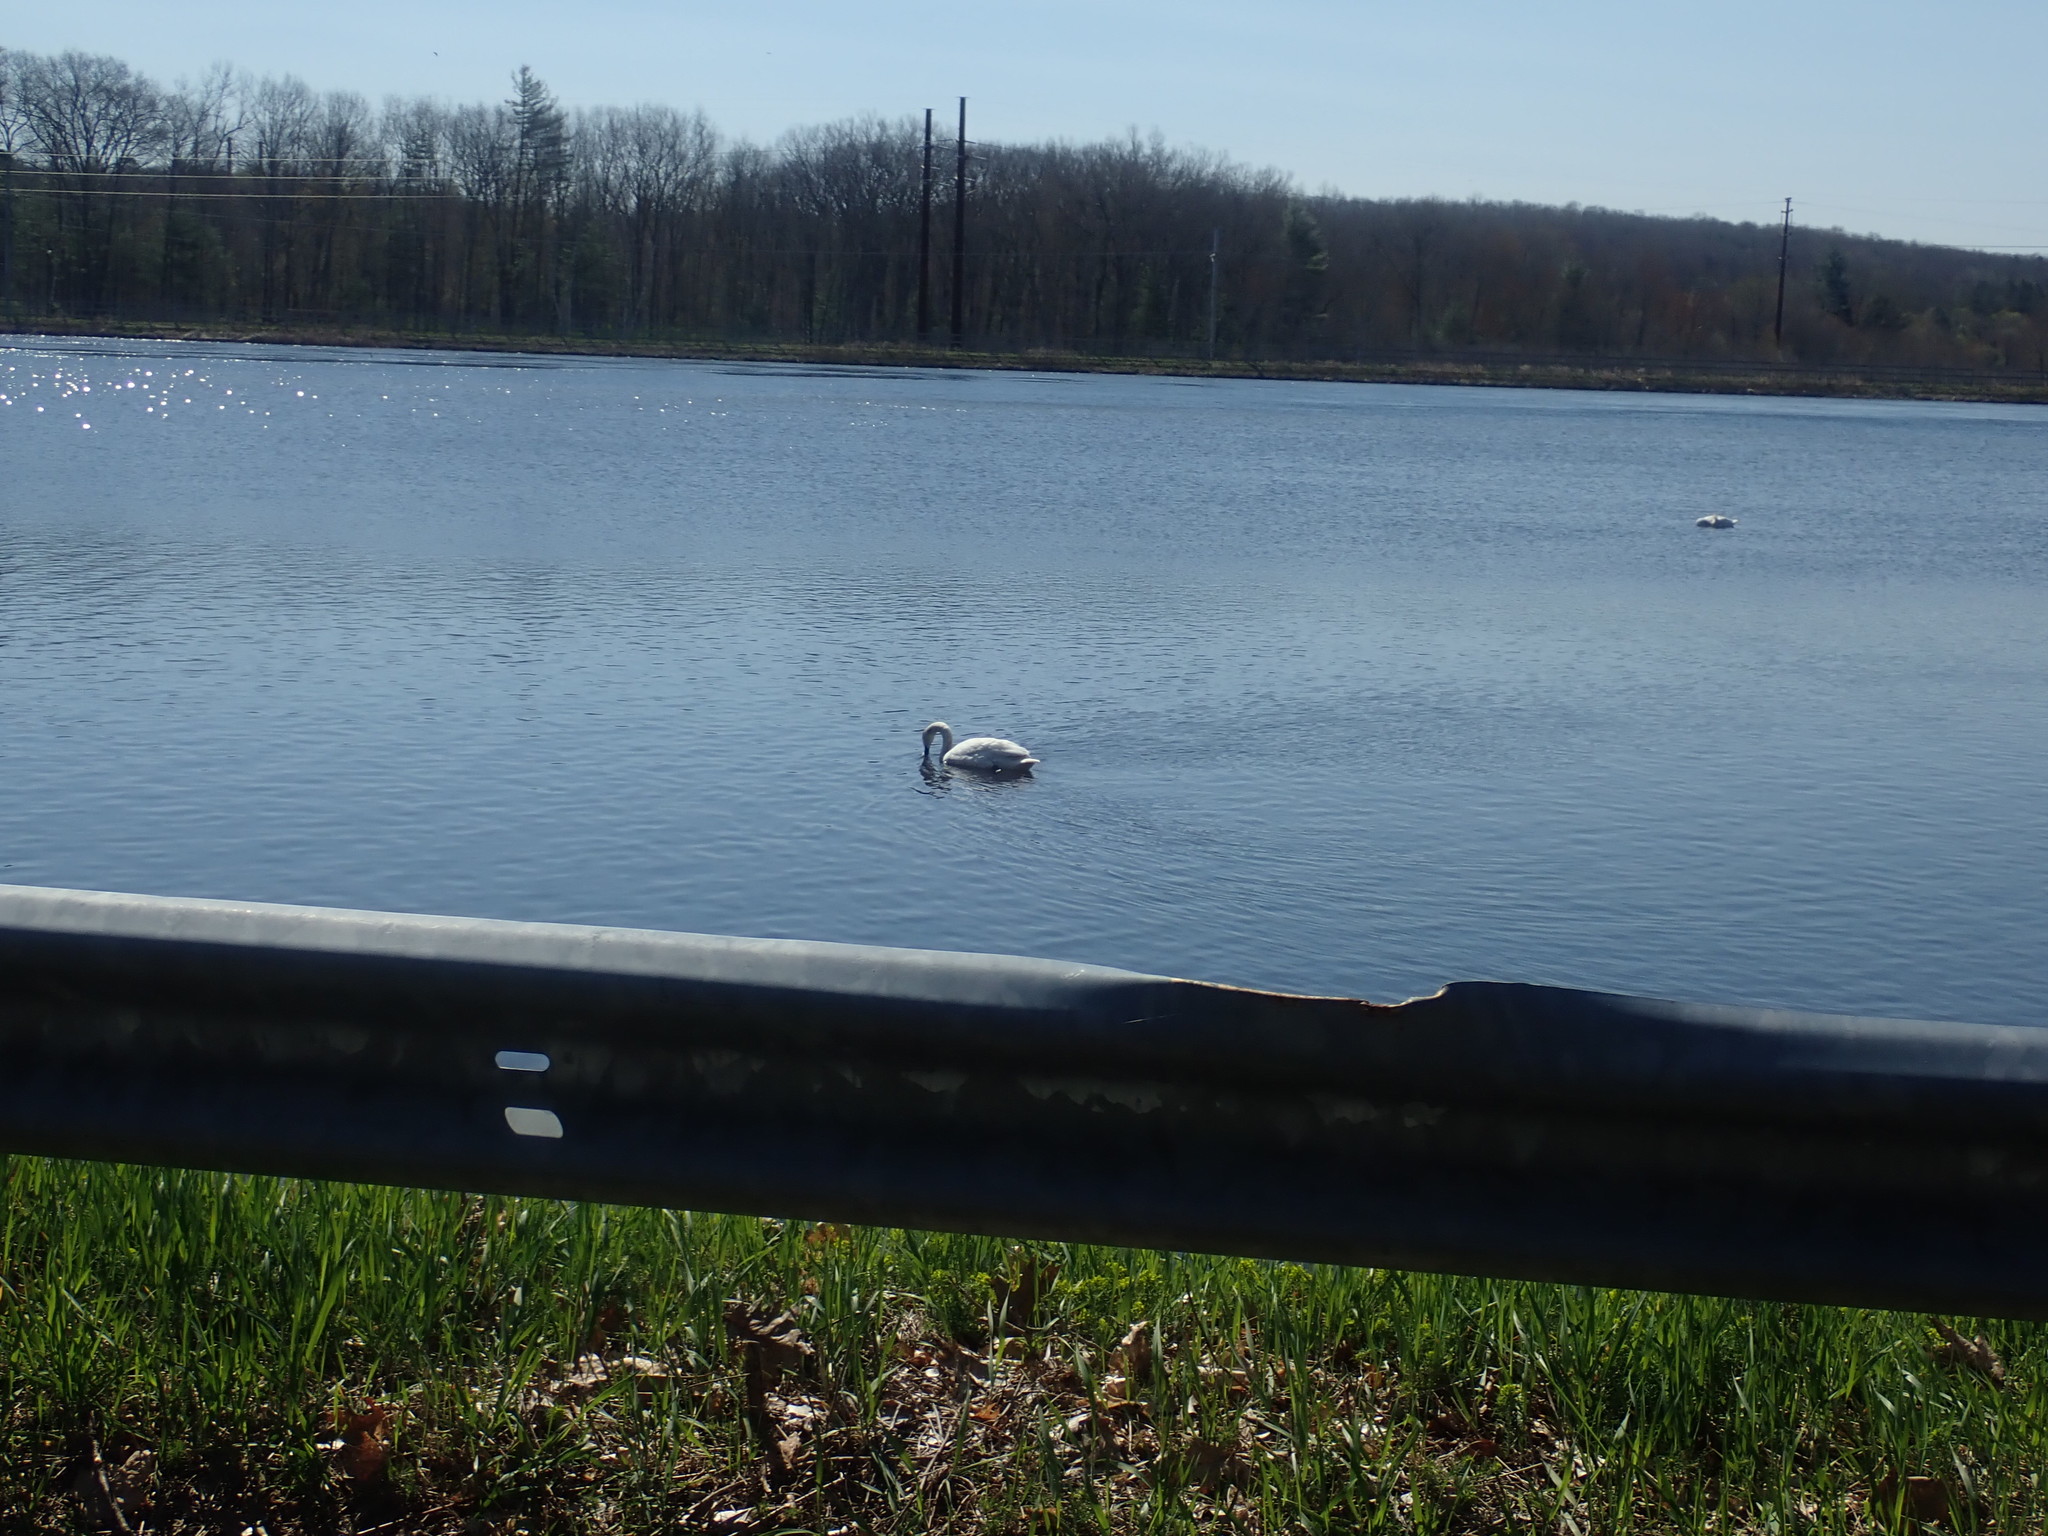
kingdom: Animalia
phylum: Chordata
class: Aves
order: Anseriformes
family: Anatidae
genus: Cygnus
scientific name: Cygnus olor
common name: Mute swan
